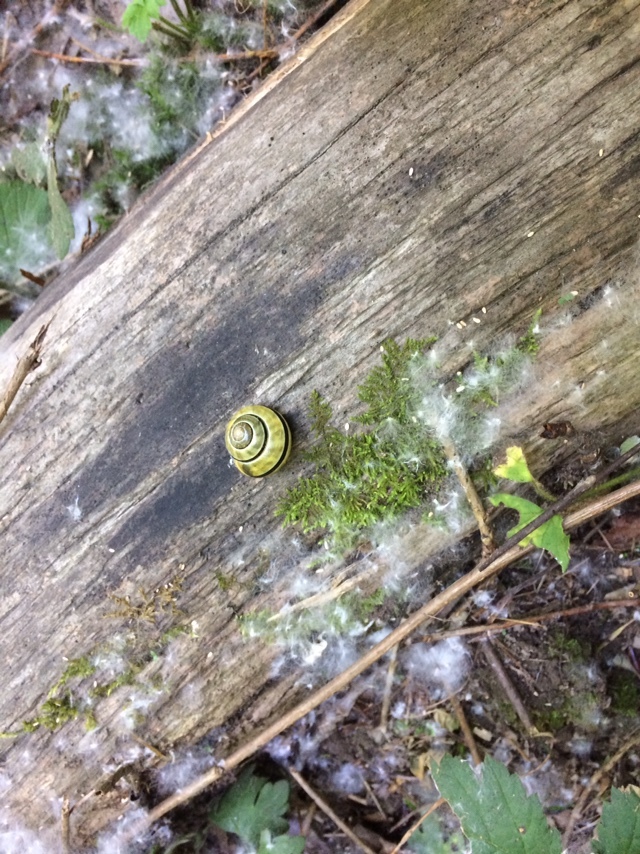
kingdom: Animalia
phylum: Mollusca
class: Gastropoda
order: Stylommatophora
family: Helicidae
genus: Cepaea
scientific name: Cepaea
